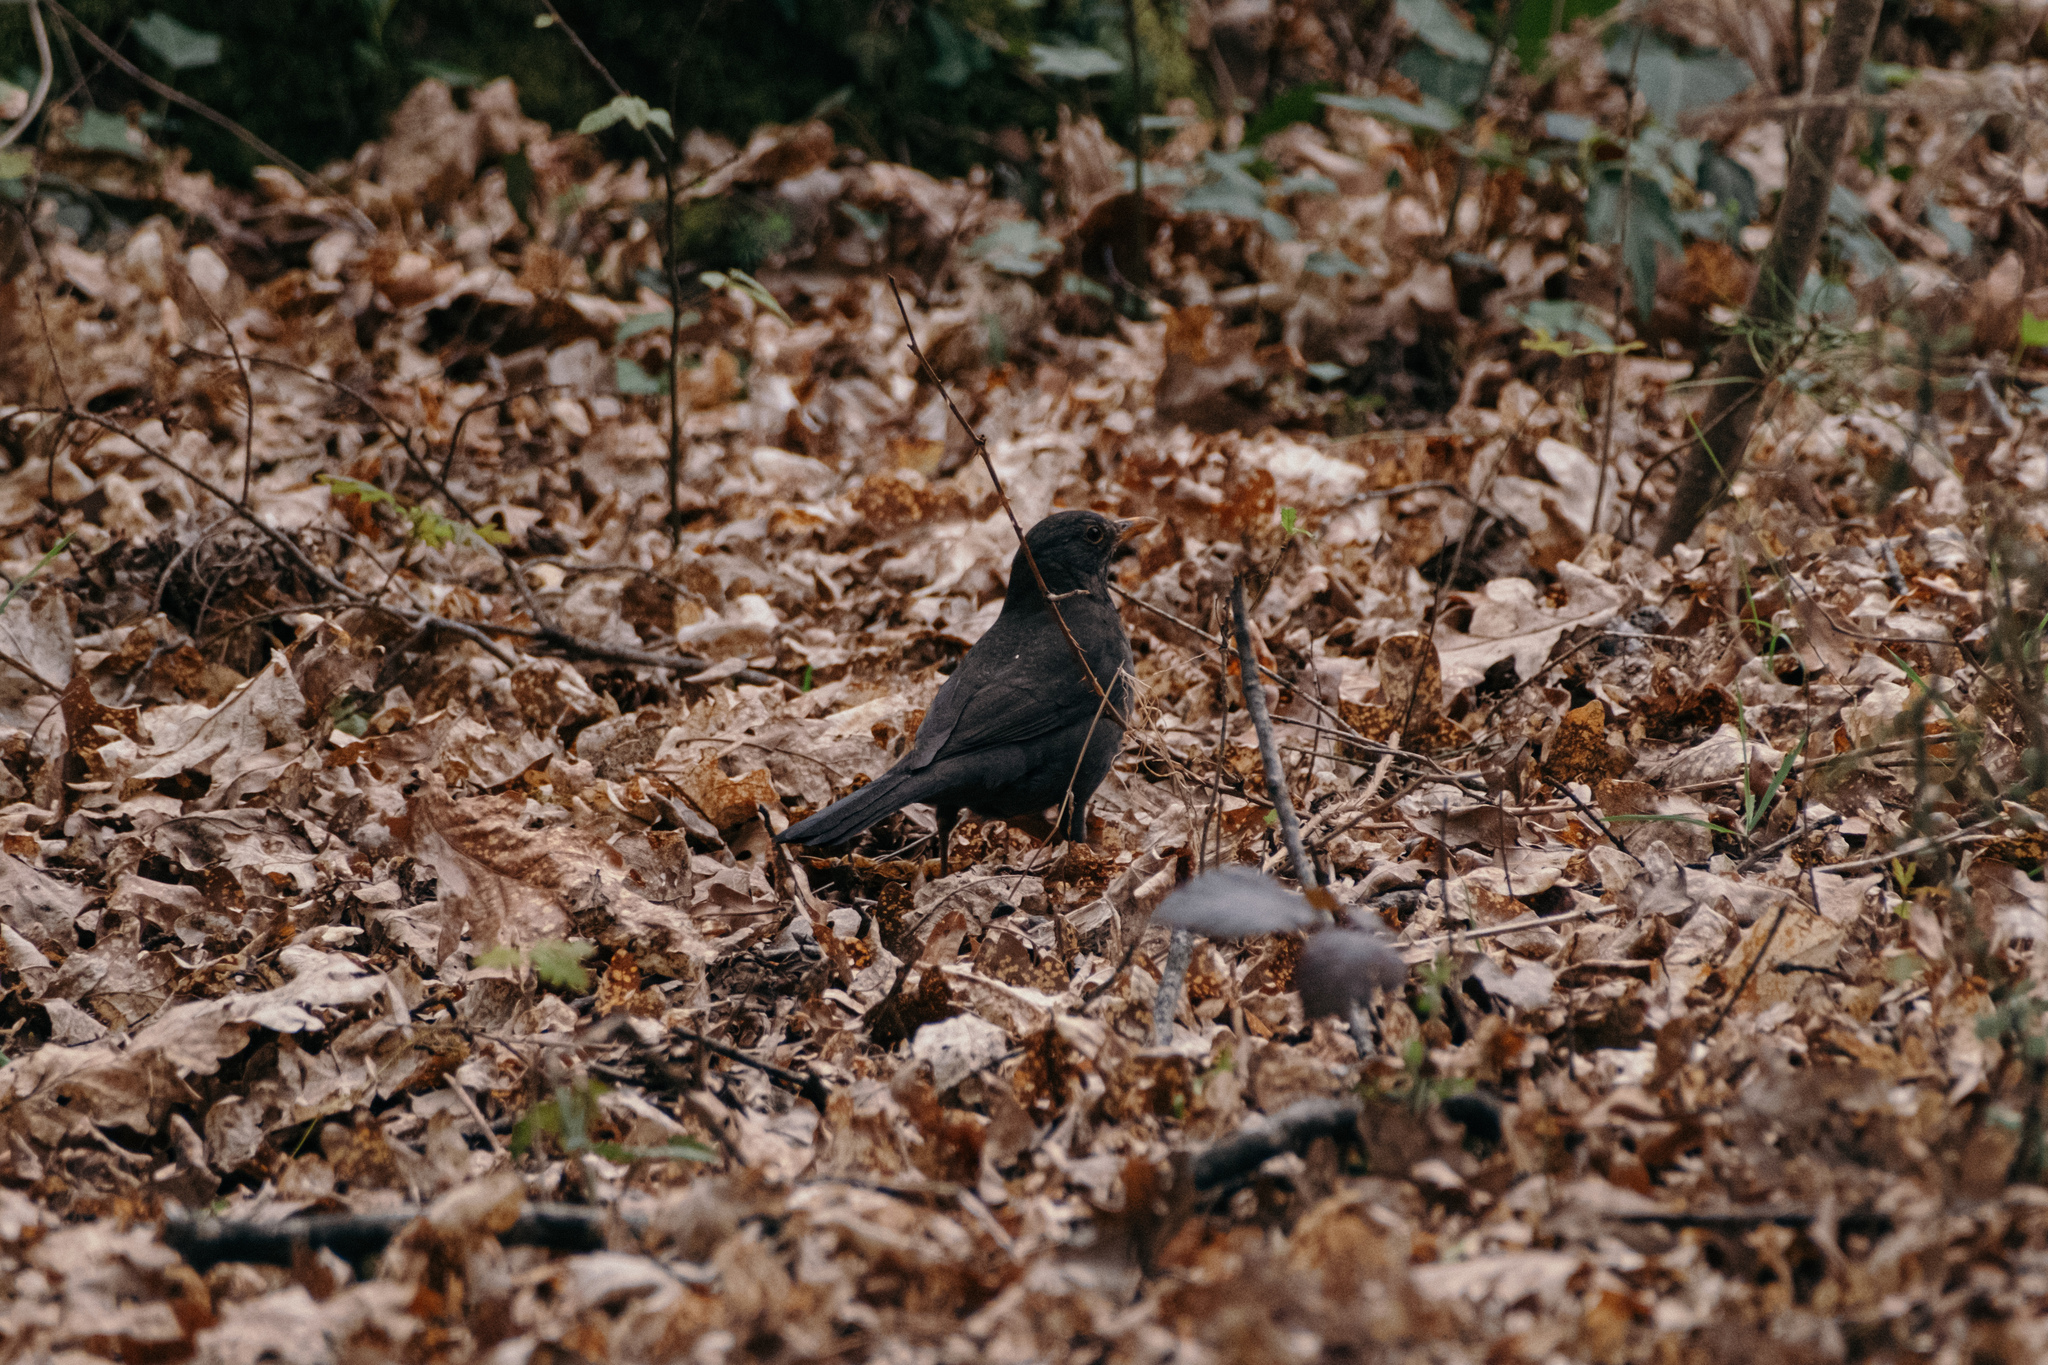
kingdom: Animalia
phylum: Chordata
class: Aves
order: Passeriformes
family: Turdidae
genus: Turdus
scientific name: Turdus merula
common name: Common blackbird
